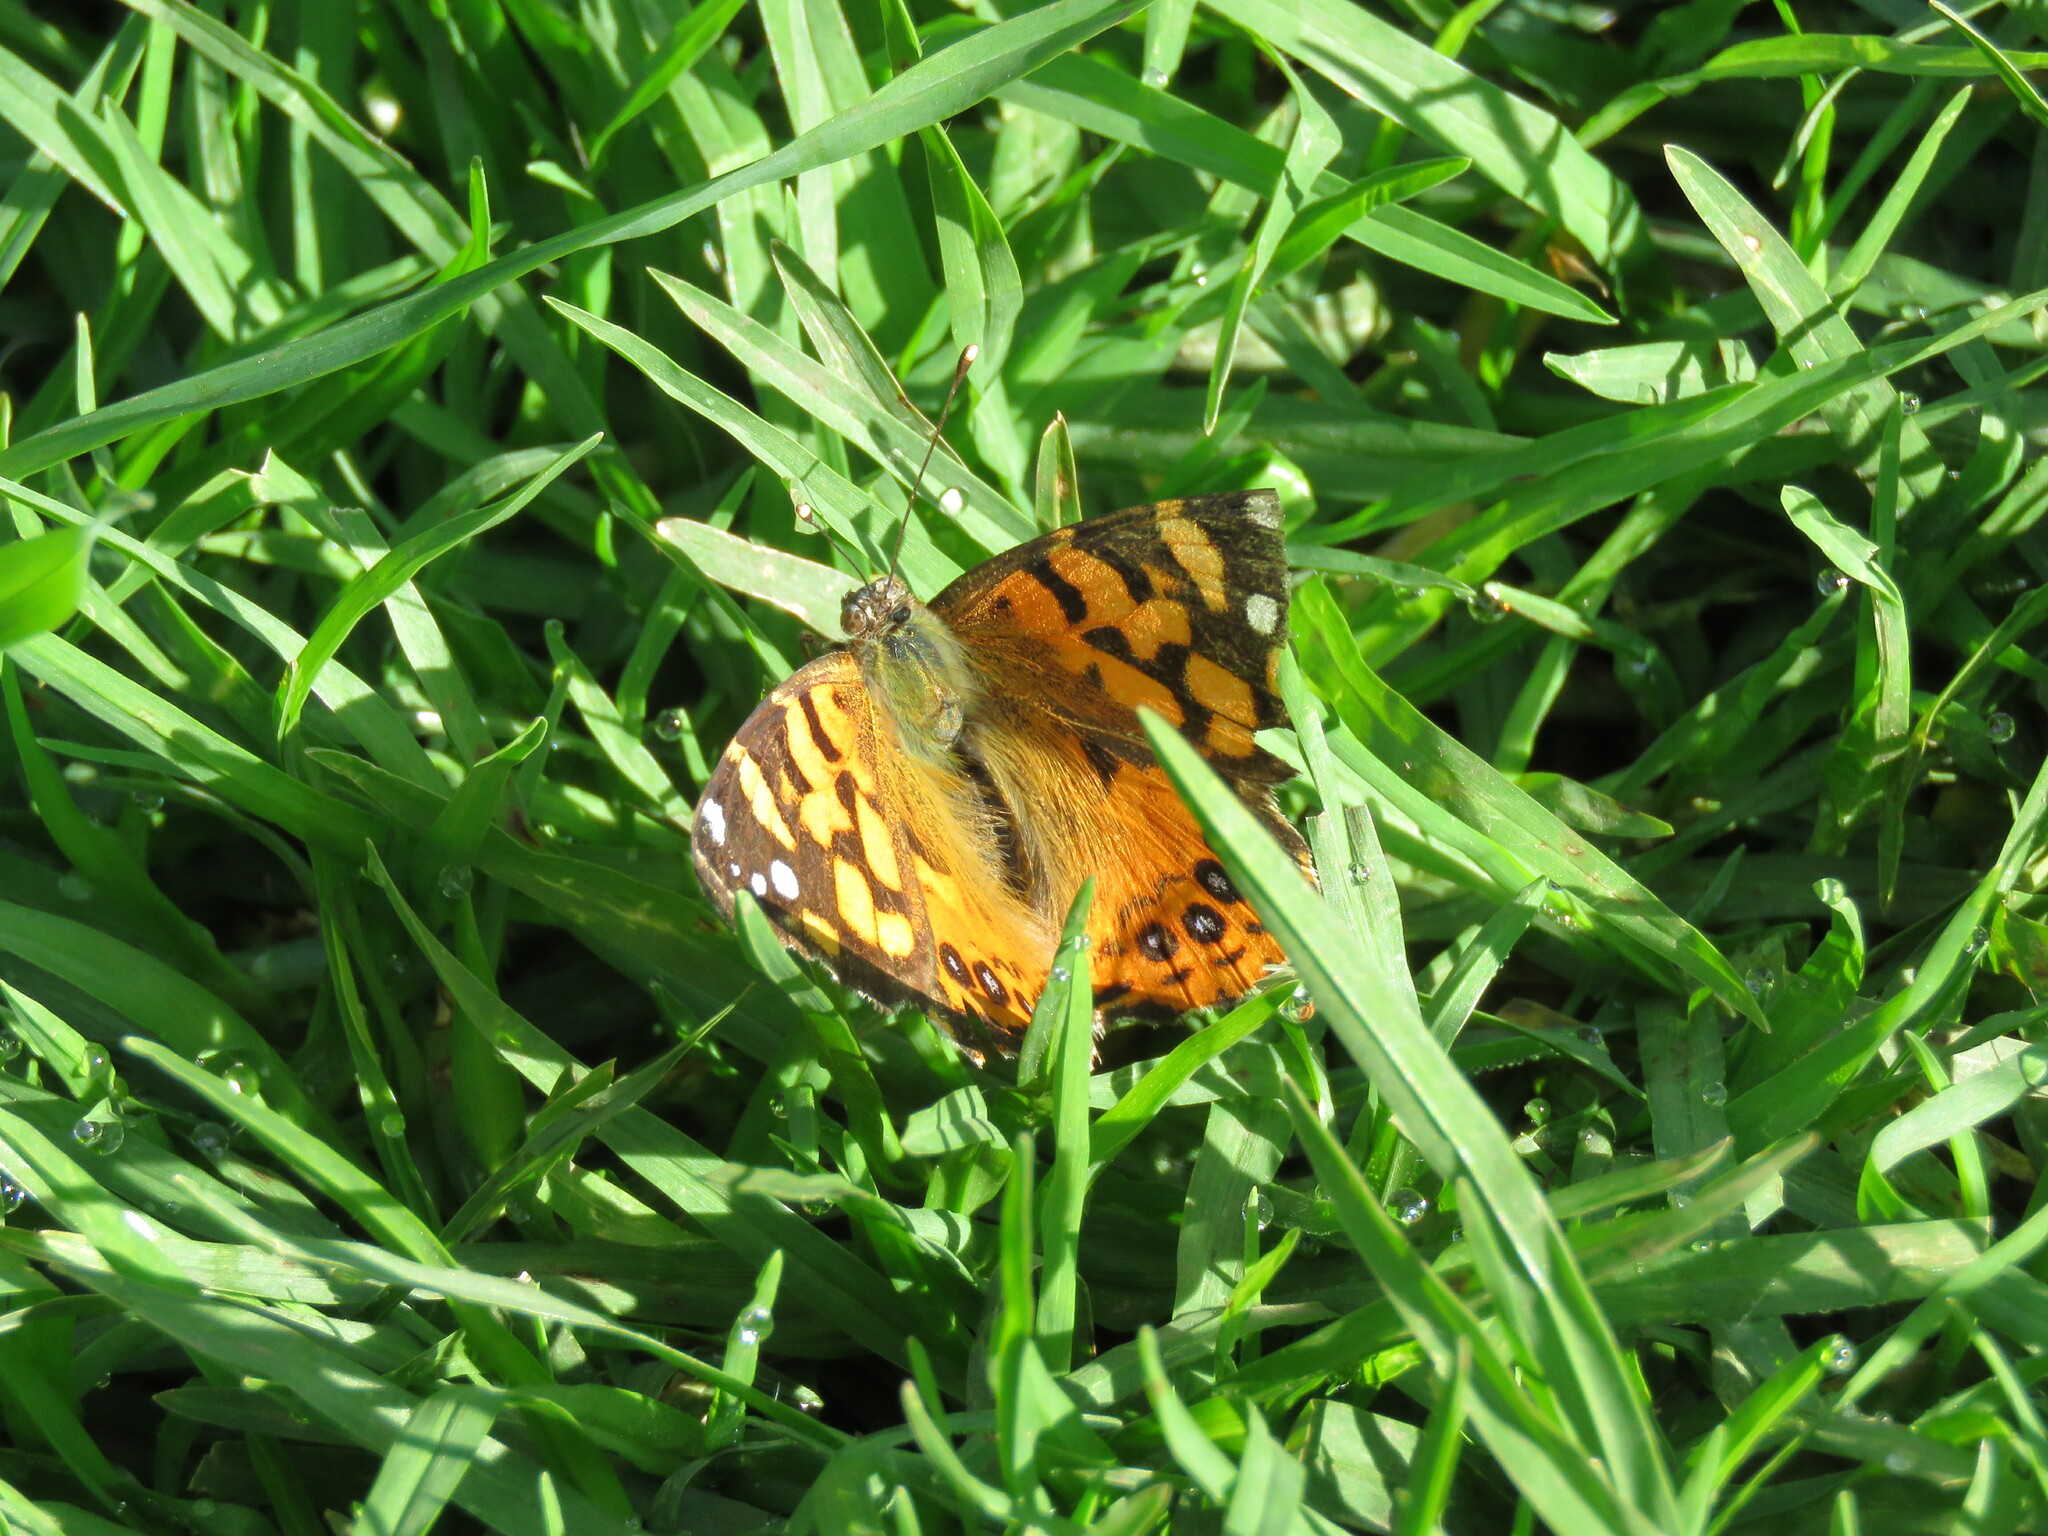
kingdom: Animalia
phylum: Arthropoda
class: Insecta
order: Lepidoptera
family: Nymphalidae
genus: Vanessa
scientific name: Vanessa carye
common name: Subtropical lady
